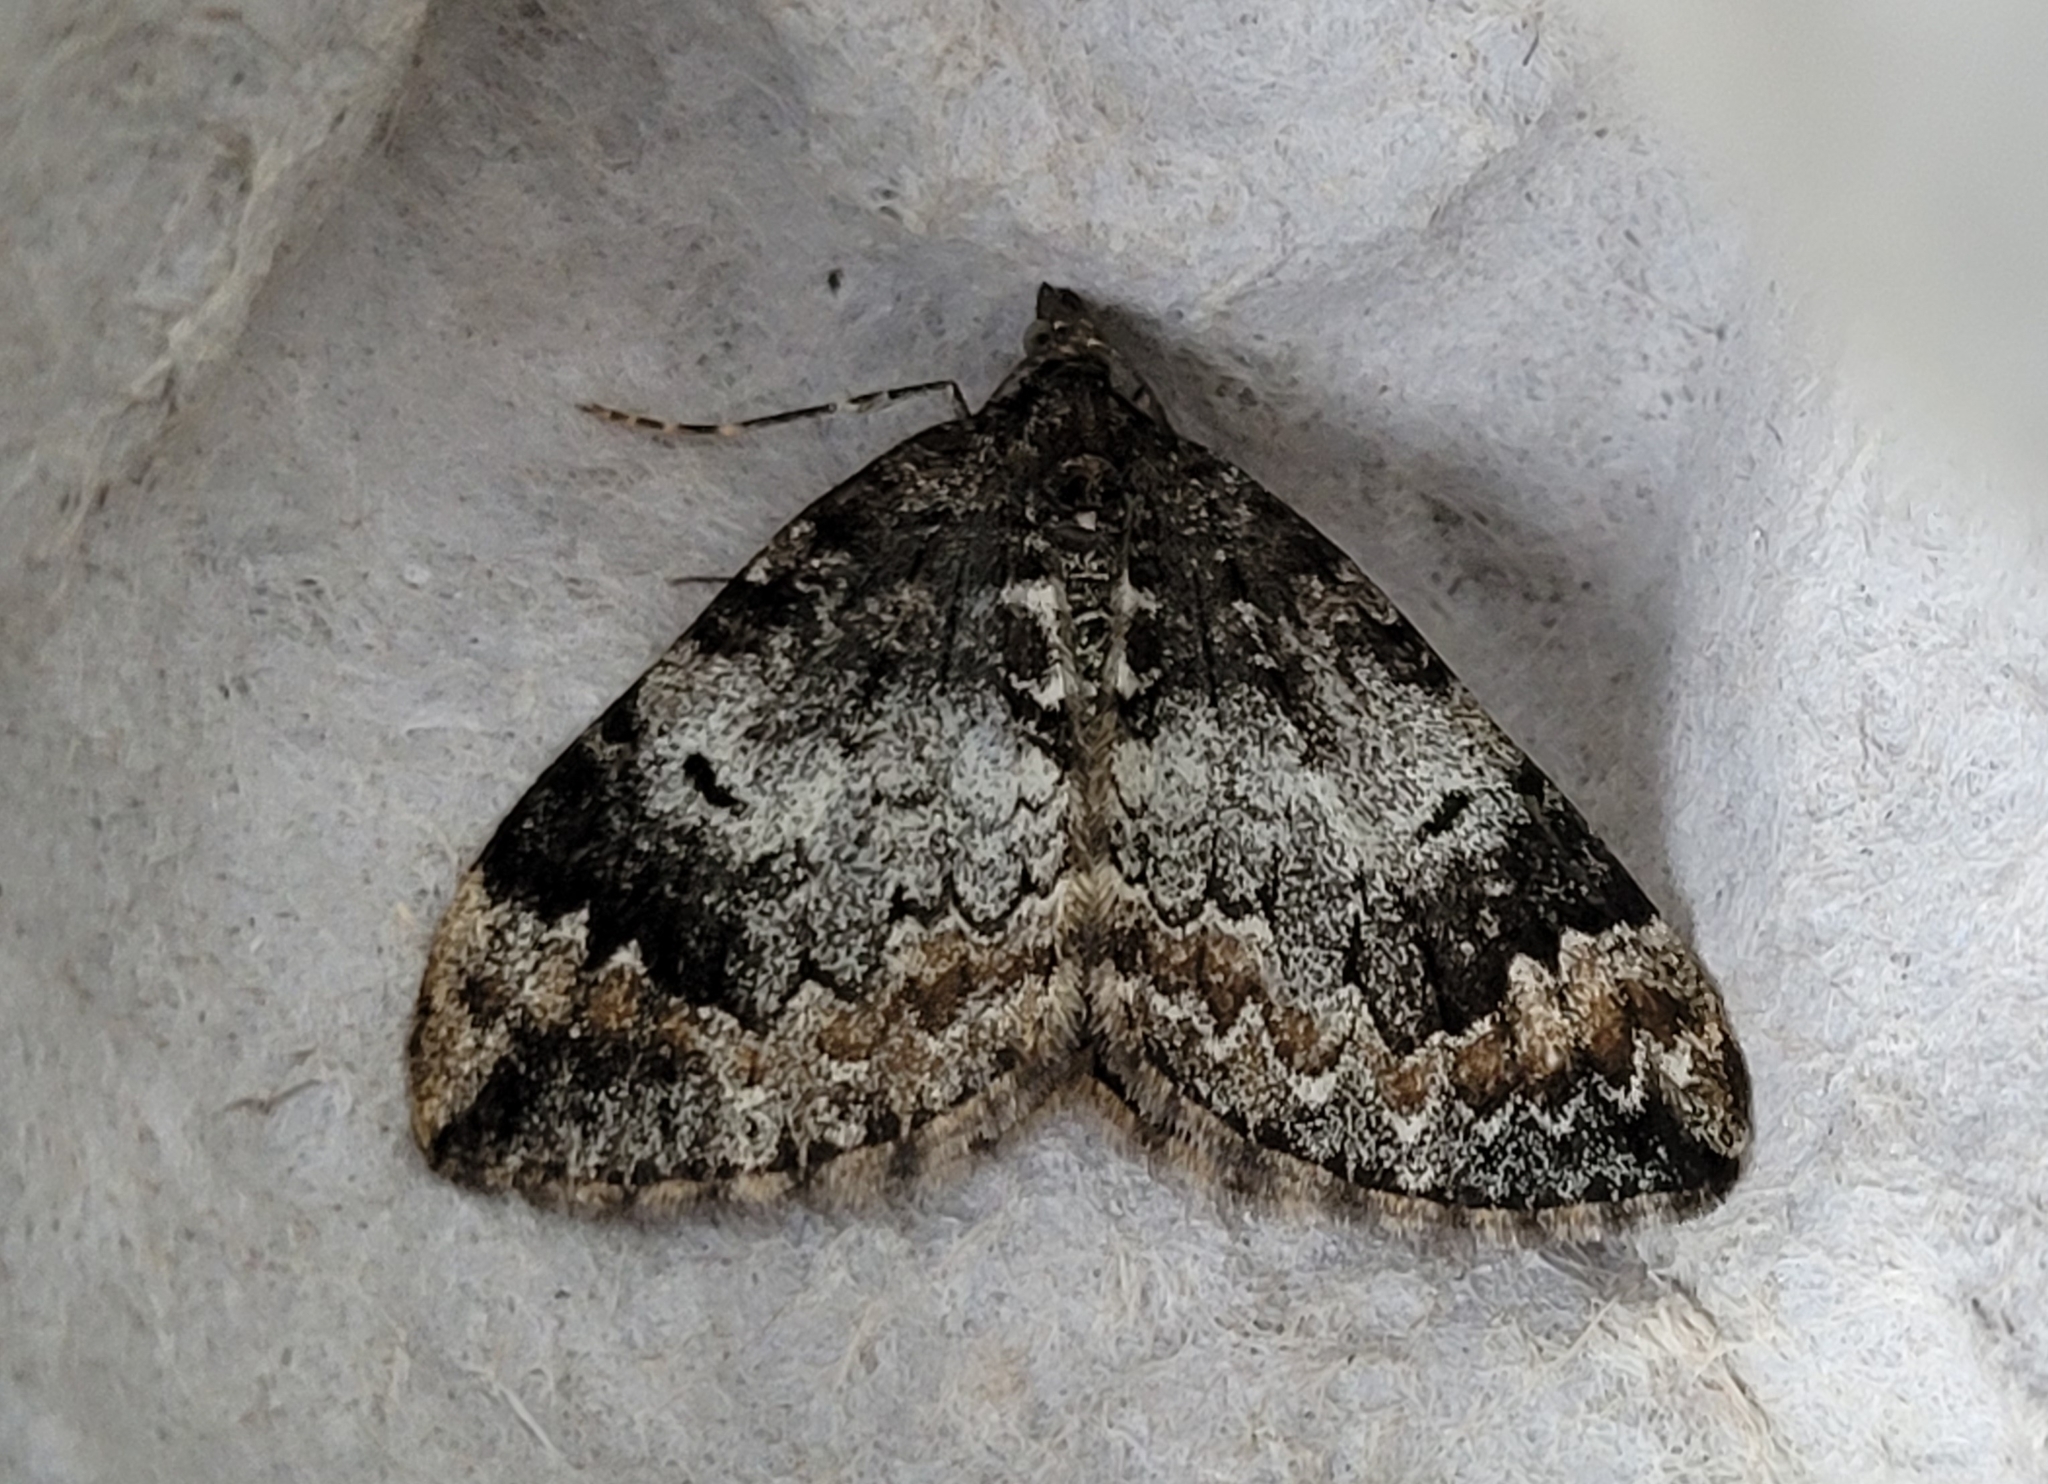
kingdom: Animalia
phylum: Arthropoda
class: Insecta
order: Lepidoptera
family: Geometridae
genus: Dysstroma
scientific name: Dysstroma truncata
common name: Common marbled carpet
